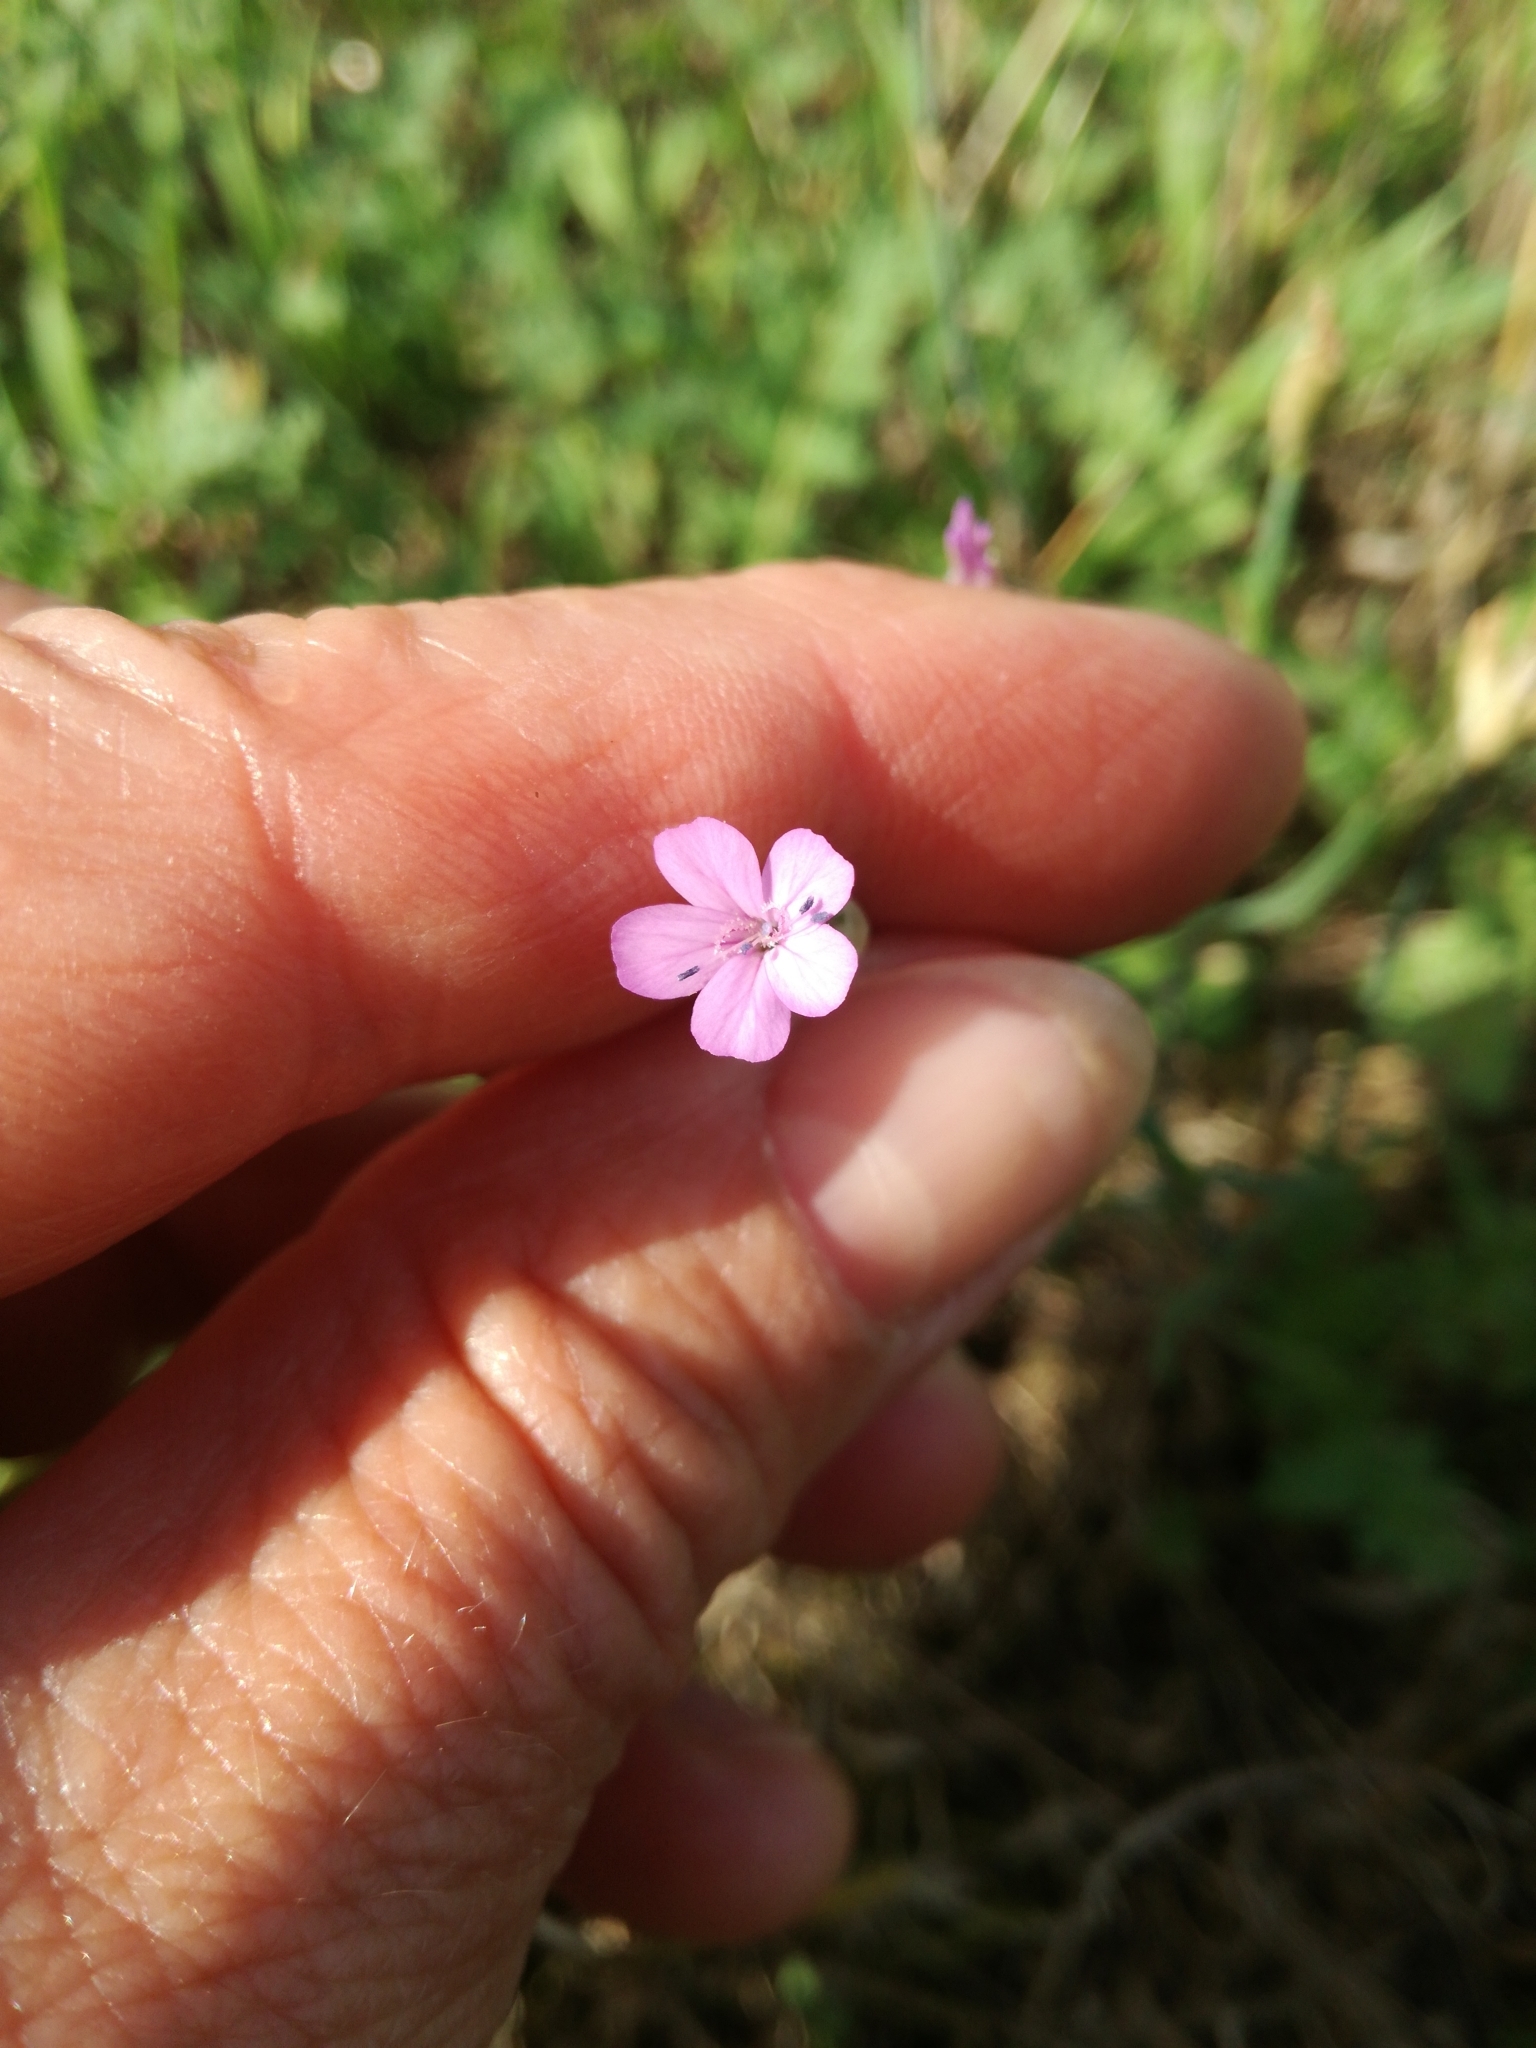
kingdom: Plantae
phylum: Tracheophyta
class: Magnoliopsida
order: Caryophyllales
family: Caryophyllaceae
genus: Petrorhagia
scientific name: Petrorhagia prolifera
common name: Proliferous pink
